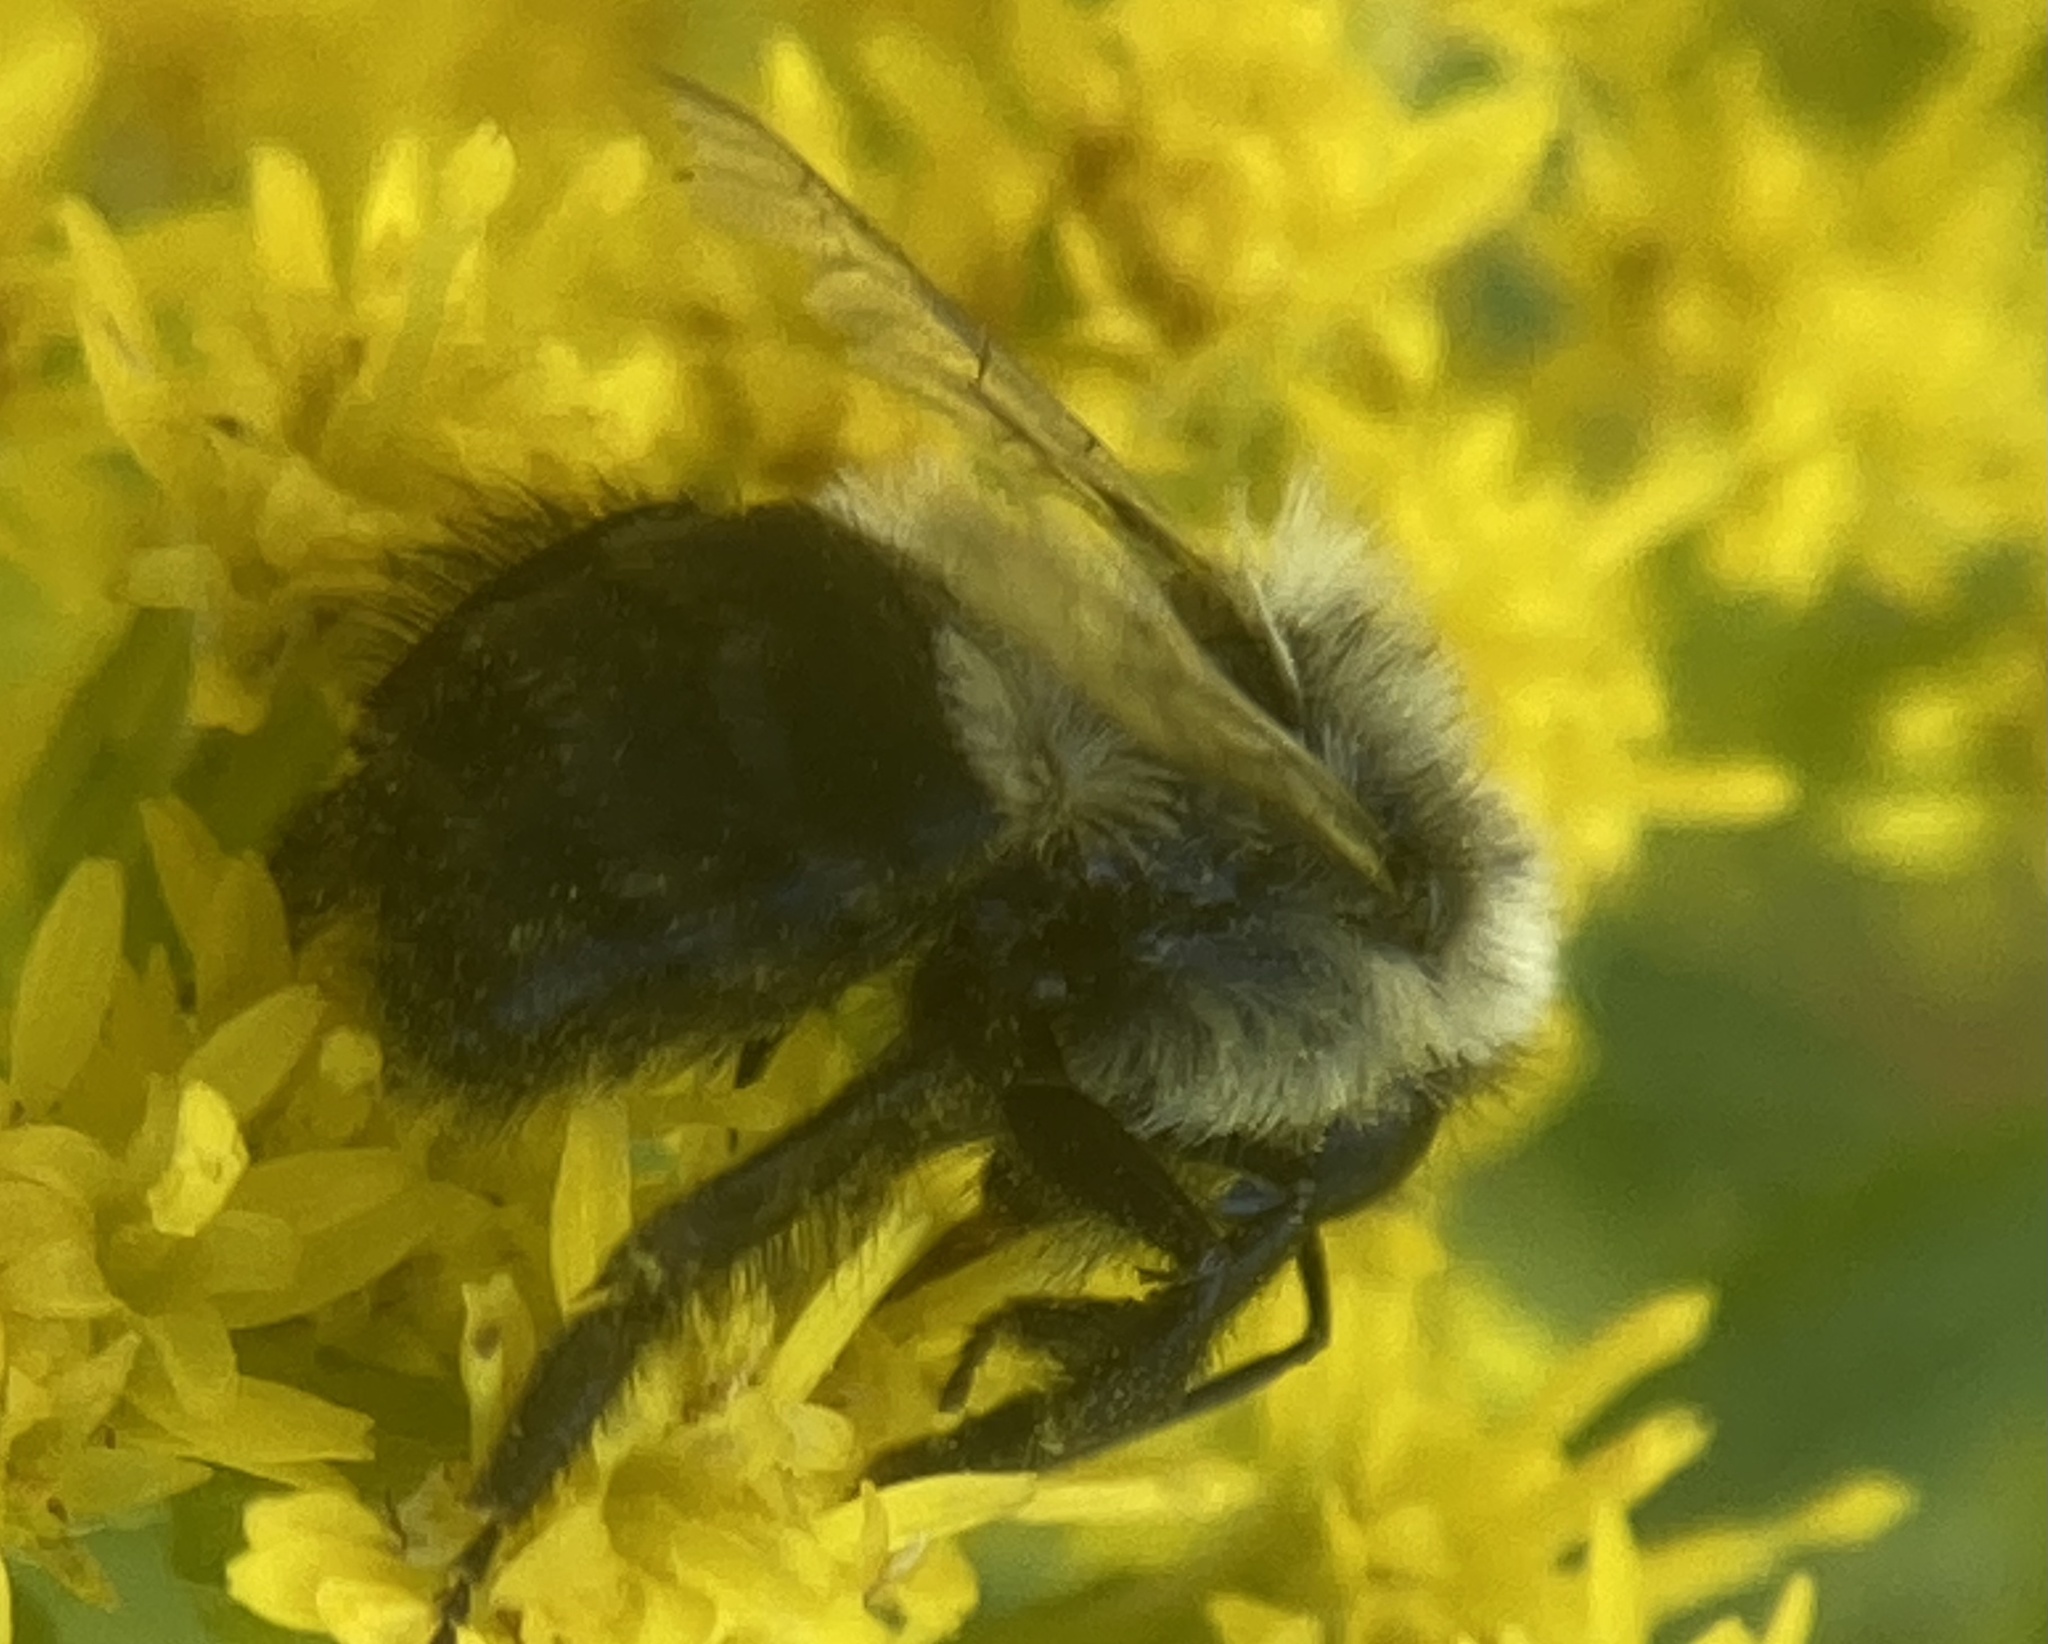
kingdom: Animalia
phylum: Arthropoda
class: Insecta
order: Hymenoptera
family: Apidae
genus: Bombus
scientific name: Bombus impatiens
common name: Common eastern bumble bee
